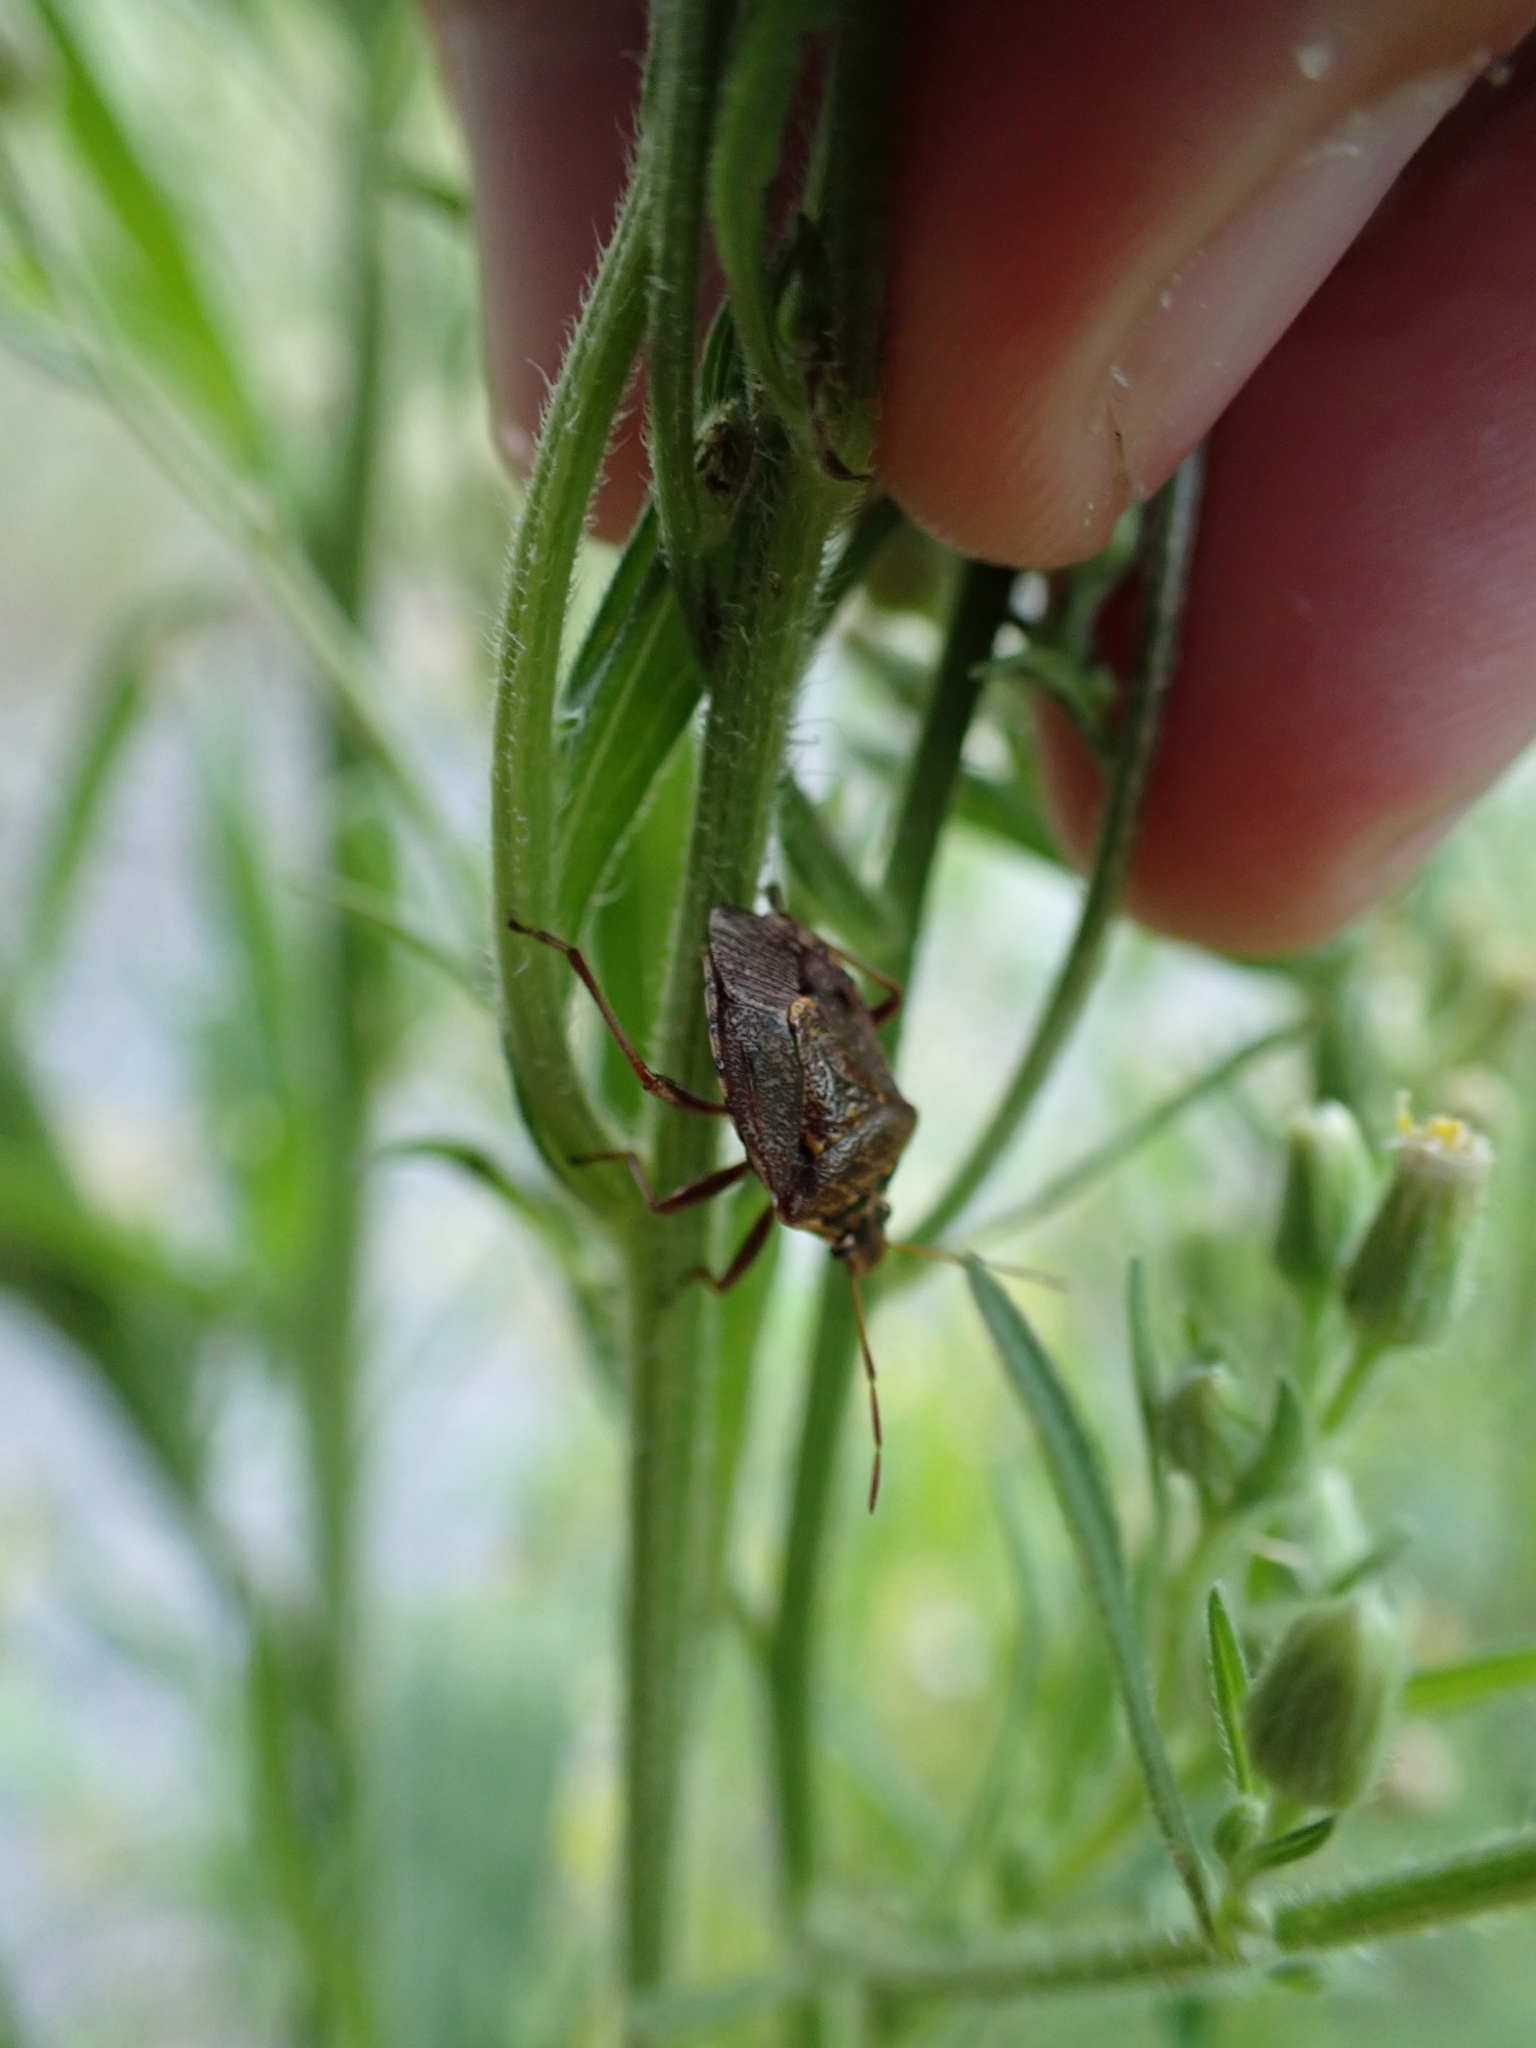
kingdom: Animalia
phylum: Arthropoda
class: Insecta
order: Hemiptera
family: Pentatomidae
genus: Cermatulus
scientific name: Cermatulus nasalis
